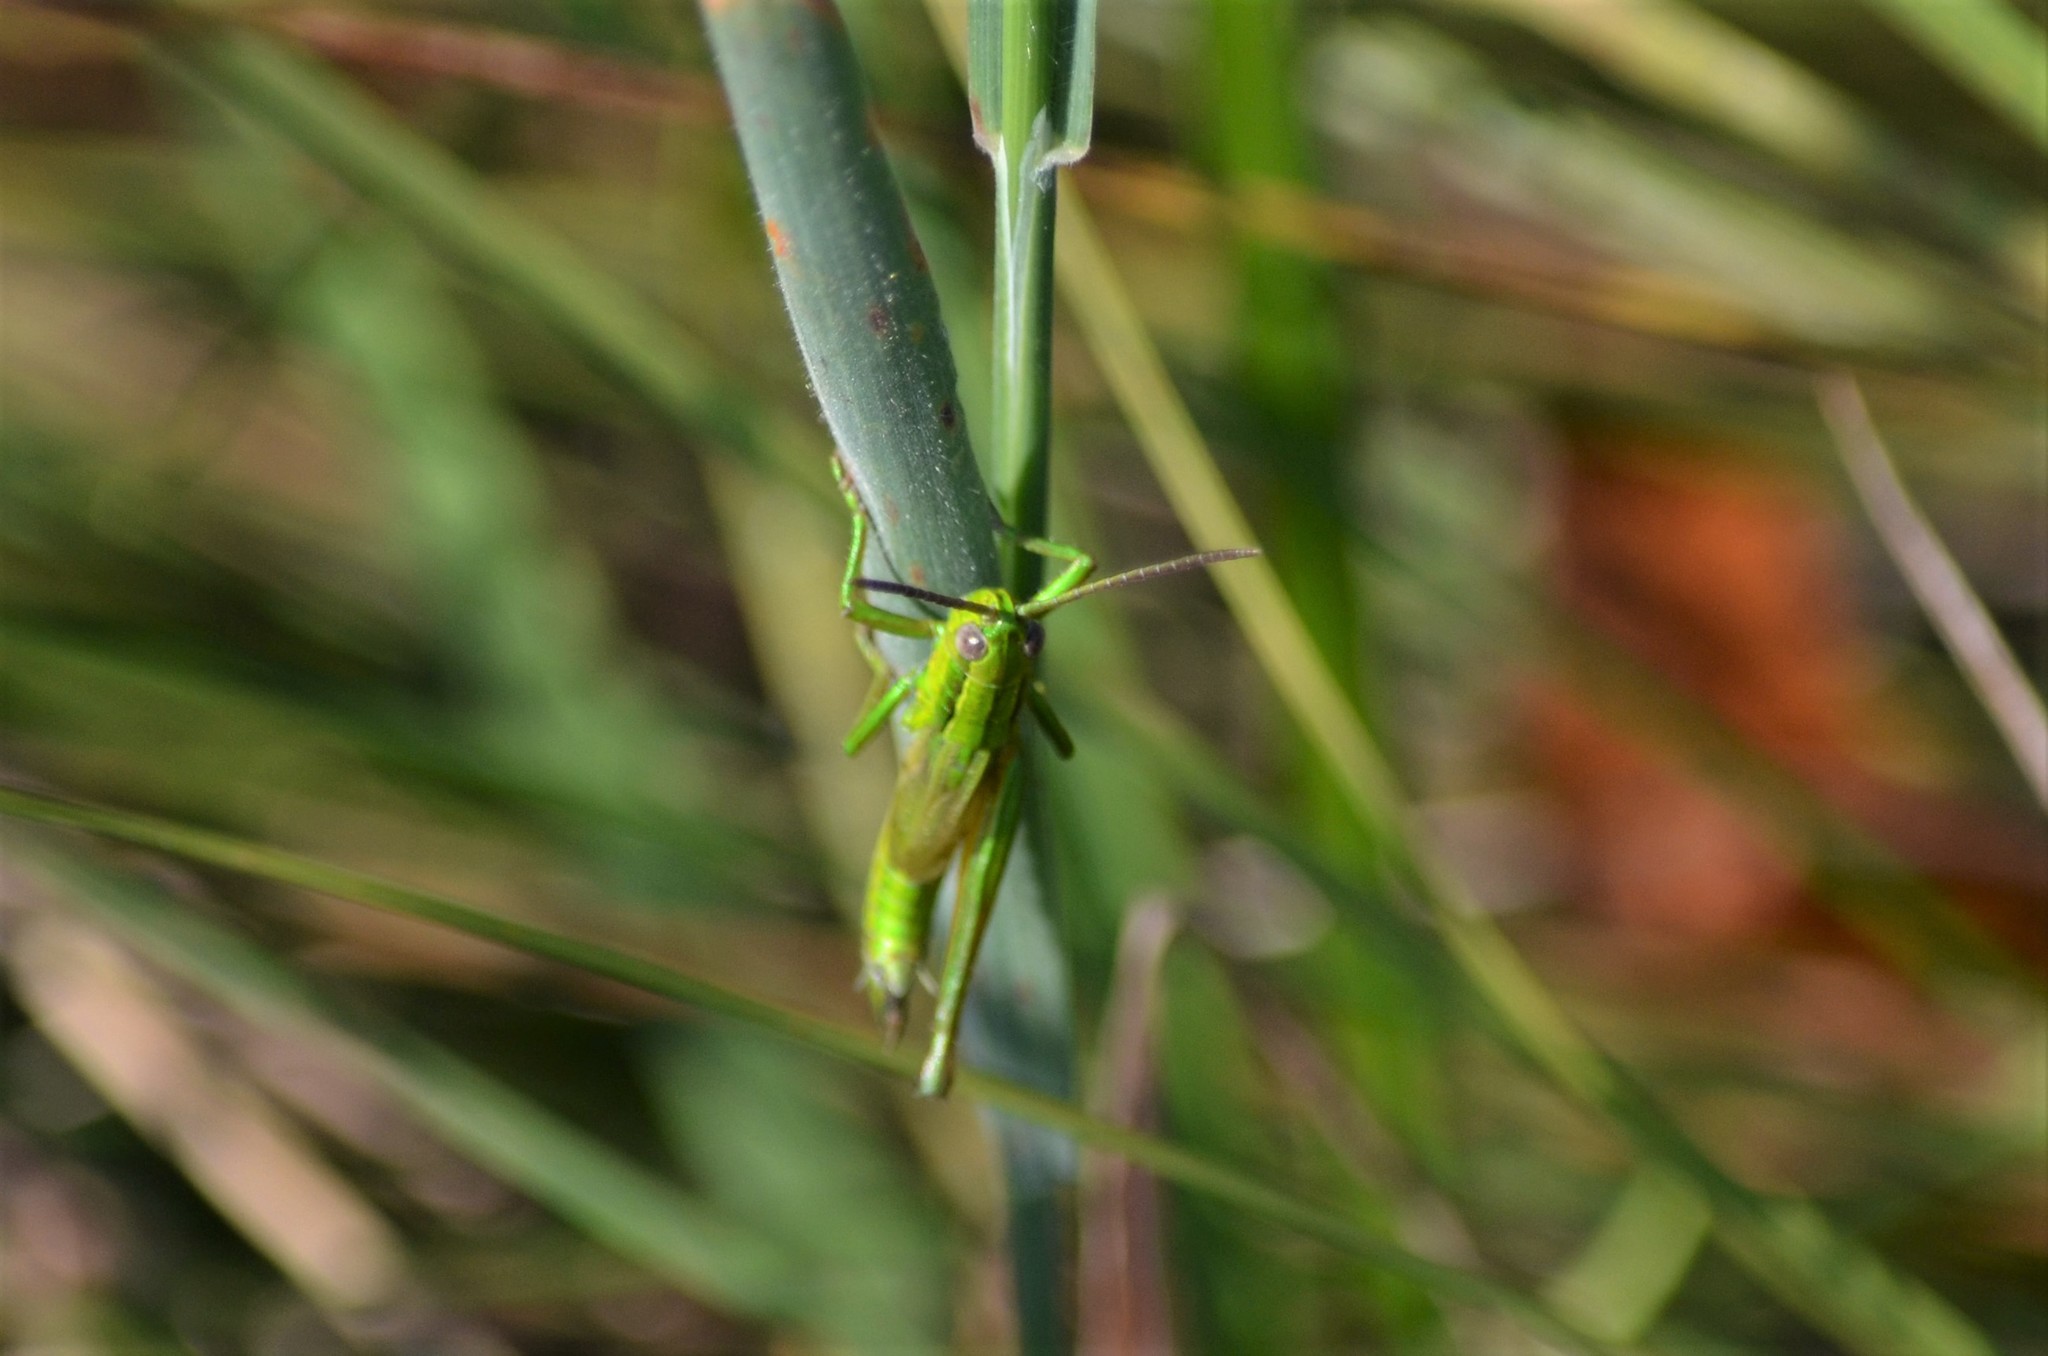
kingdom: Animalia
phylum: Arthropoda
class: Insecta
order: Orthoptera
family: Acrididae
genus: Euthystira
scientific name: Euthystira brachyptera
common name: Small gold grasshopper
